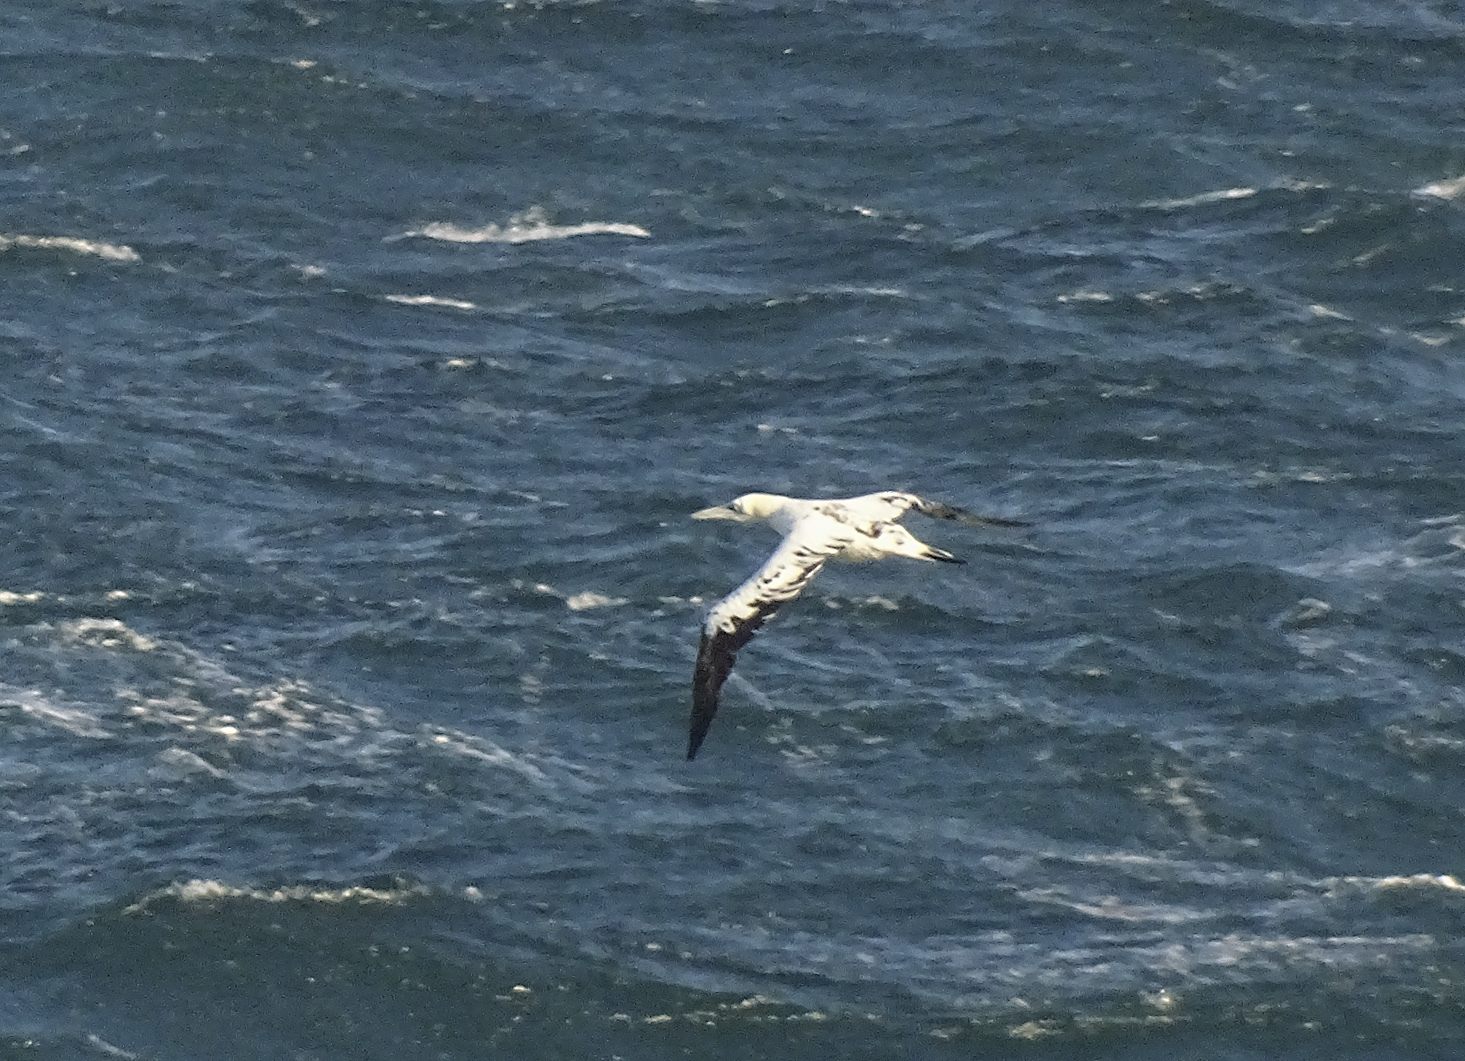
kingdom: Animalia
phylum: Chordata
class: Aves
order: Suliformes
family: Sulidae
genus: Morus
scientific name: Morus bassanus
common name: Northern gannet
